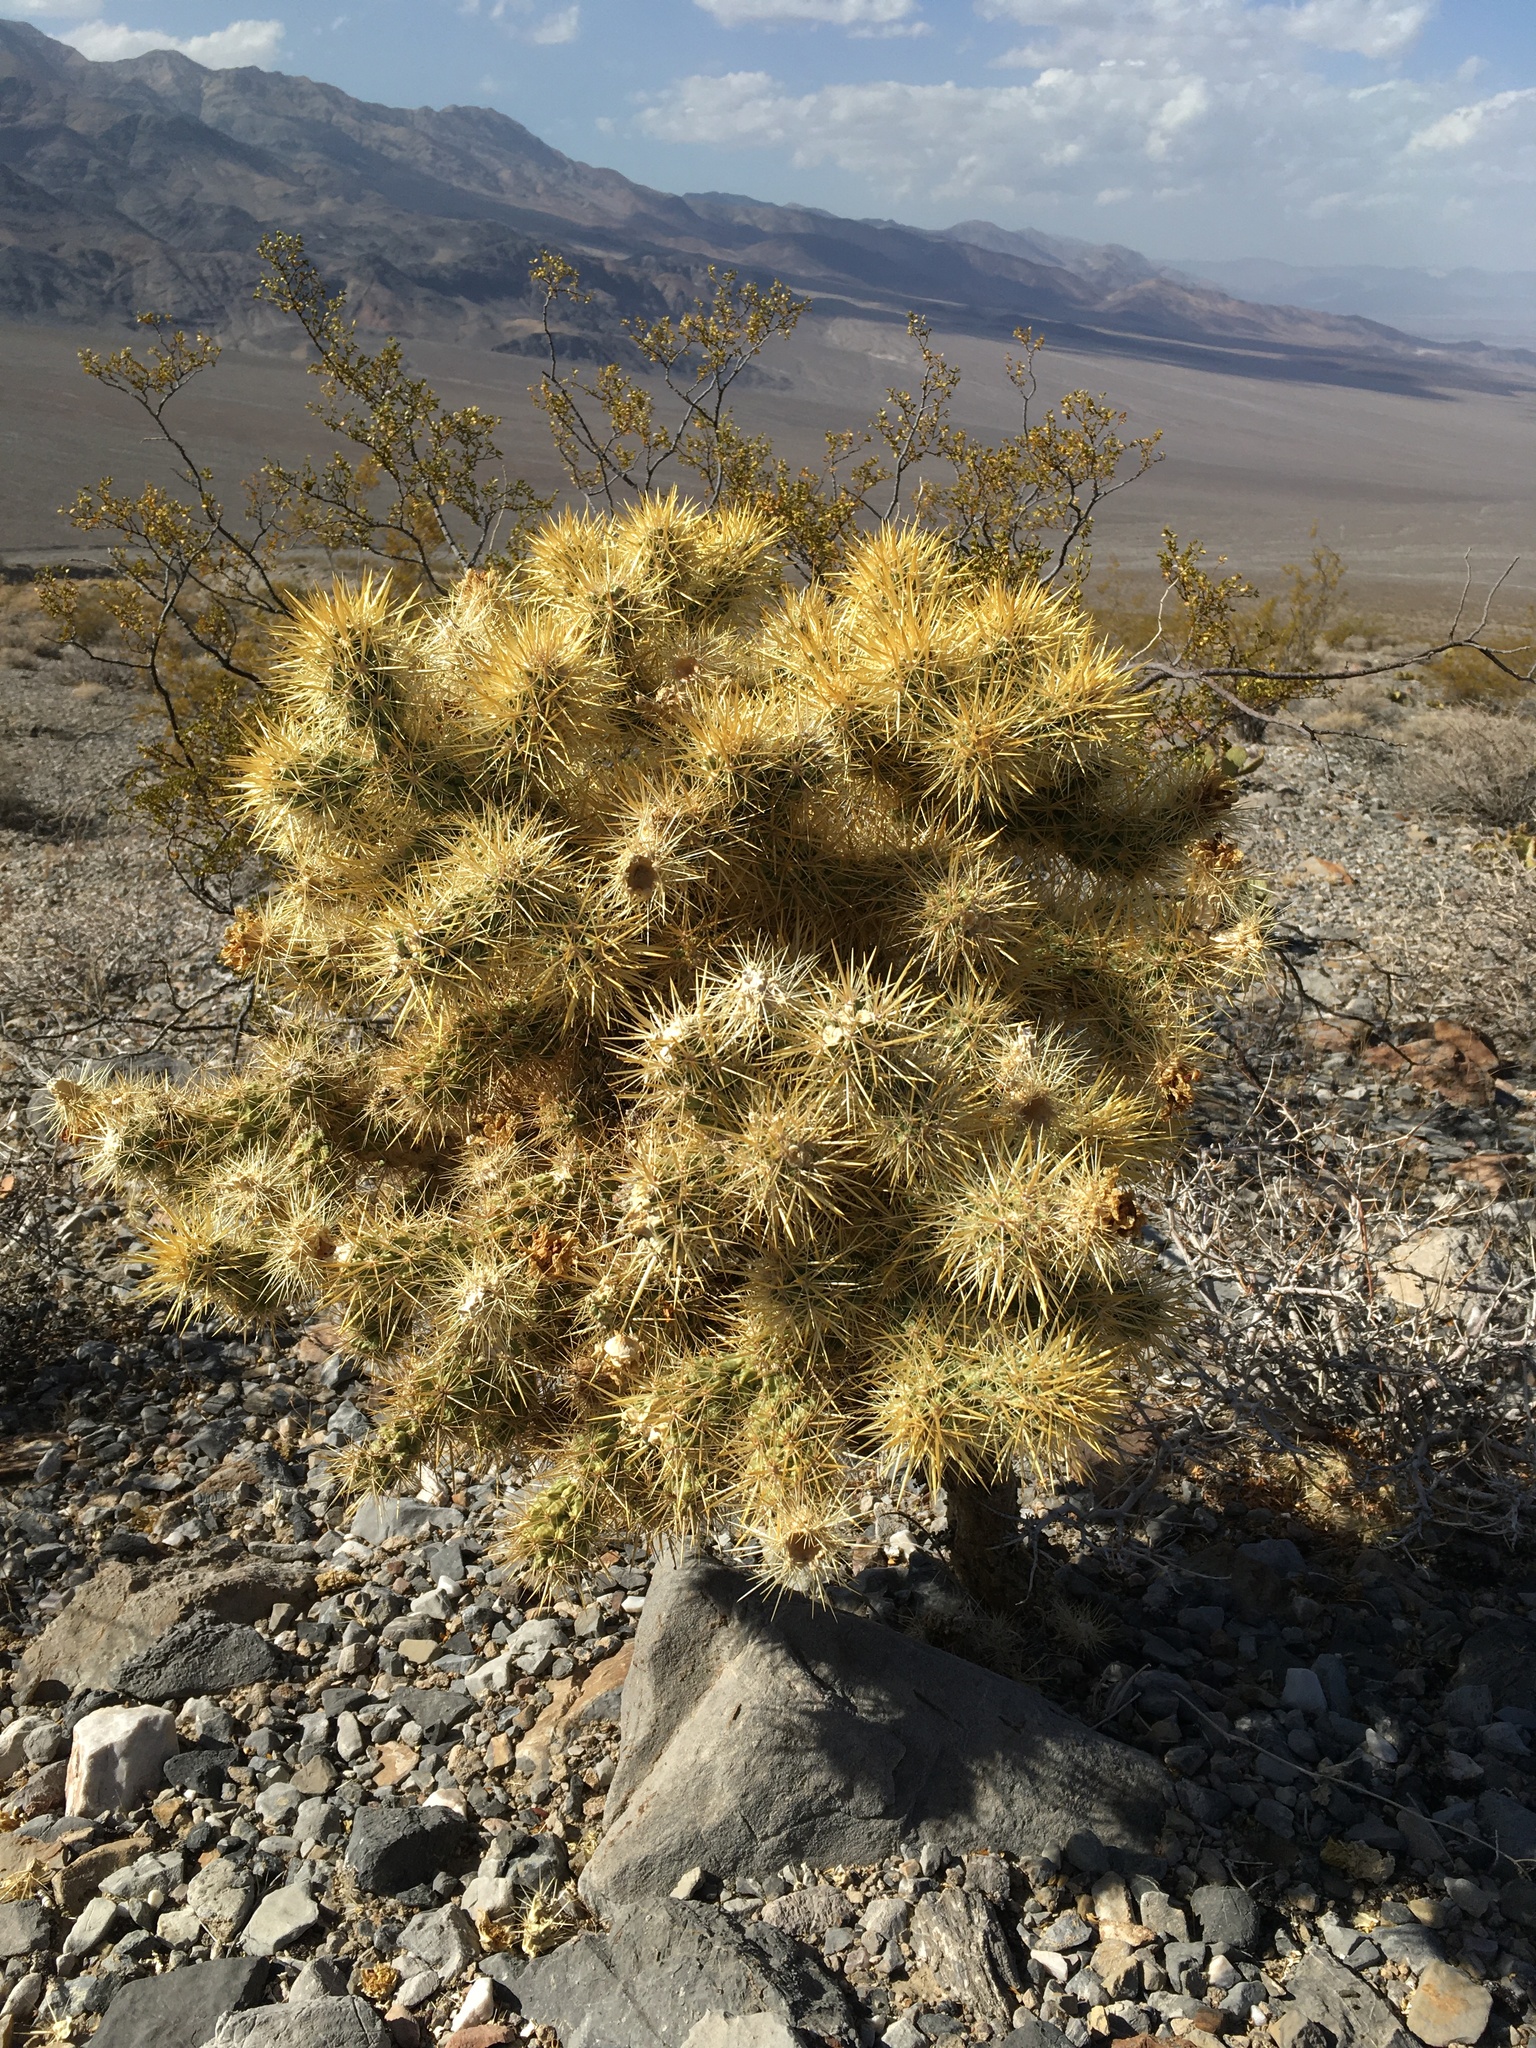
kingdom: Plantae
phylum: Tracheophyta
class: Magnoliopsida
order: Caryophyllales
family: Cactaceae
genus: Cylindropuntia
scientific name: Cylindropuntia echinocarpa
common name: Ground cholla
